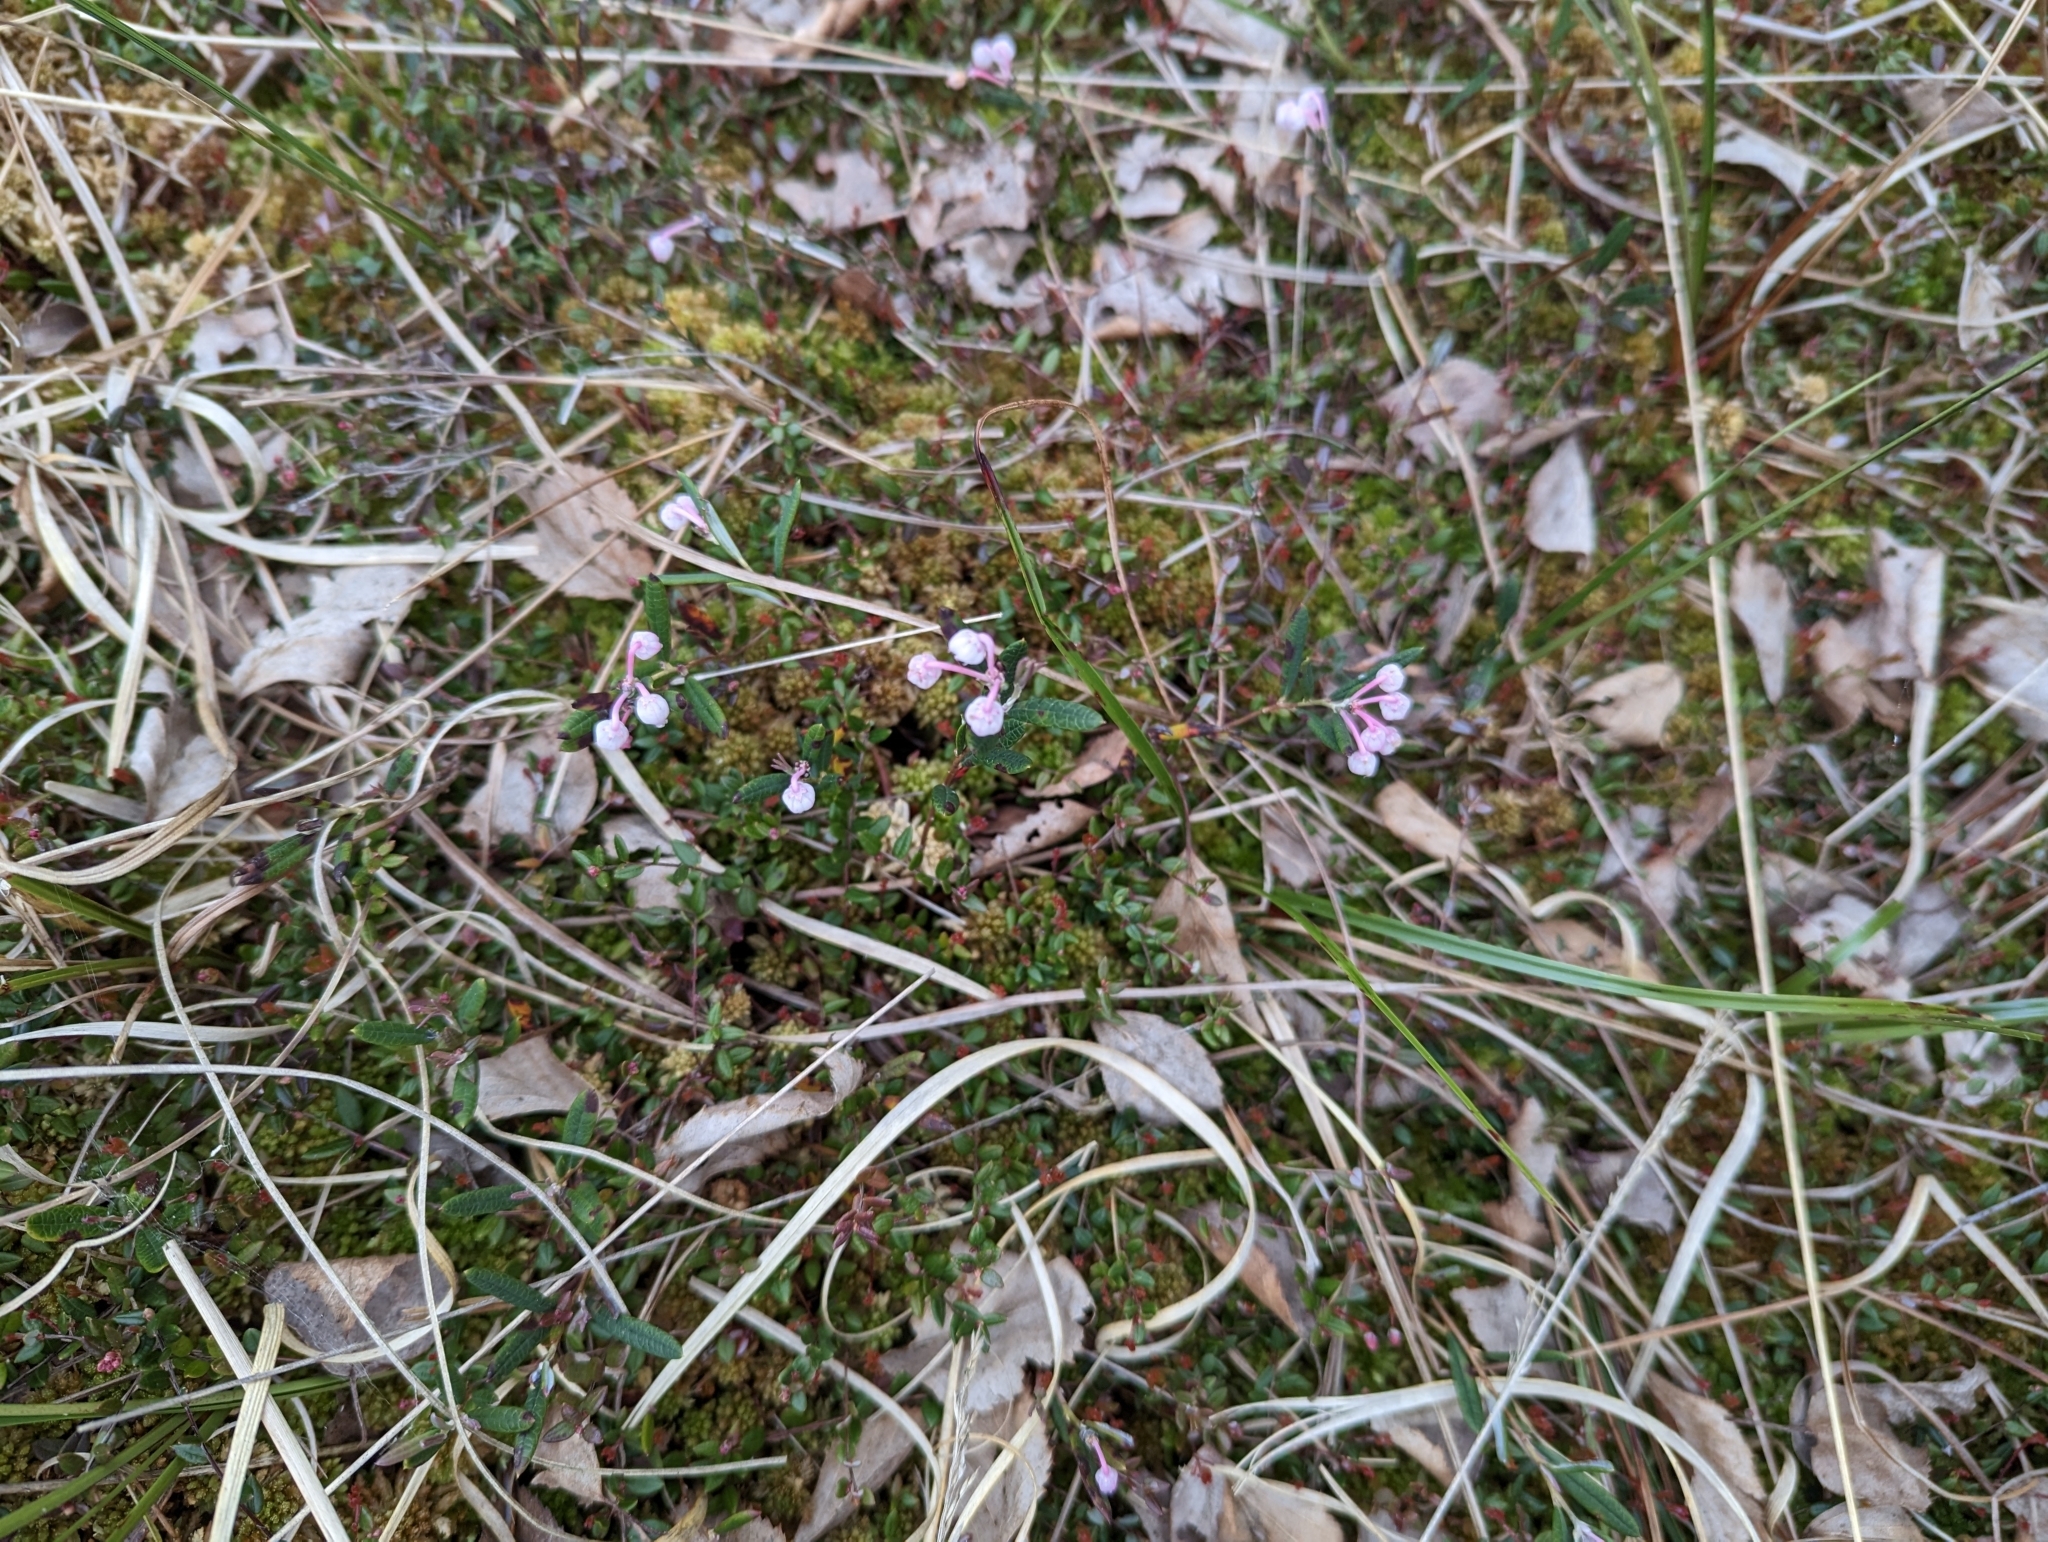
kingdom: Plantae
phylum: Tracheophyta
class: Magnoliopsida
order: Ericales
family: Ericaceae
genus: Andromeda
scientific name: Andromeda polifolia
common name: Bog-rosemary
